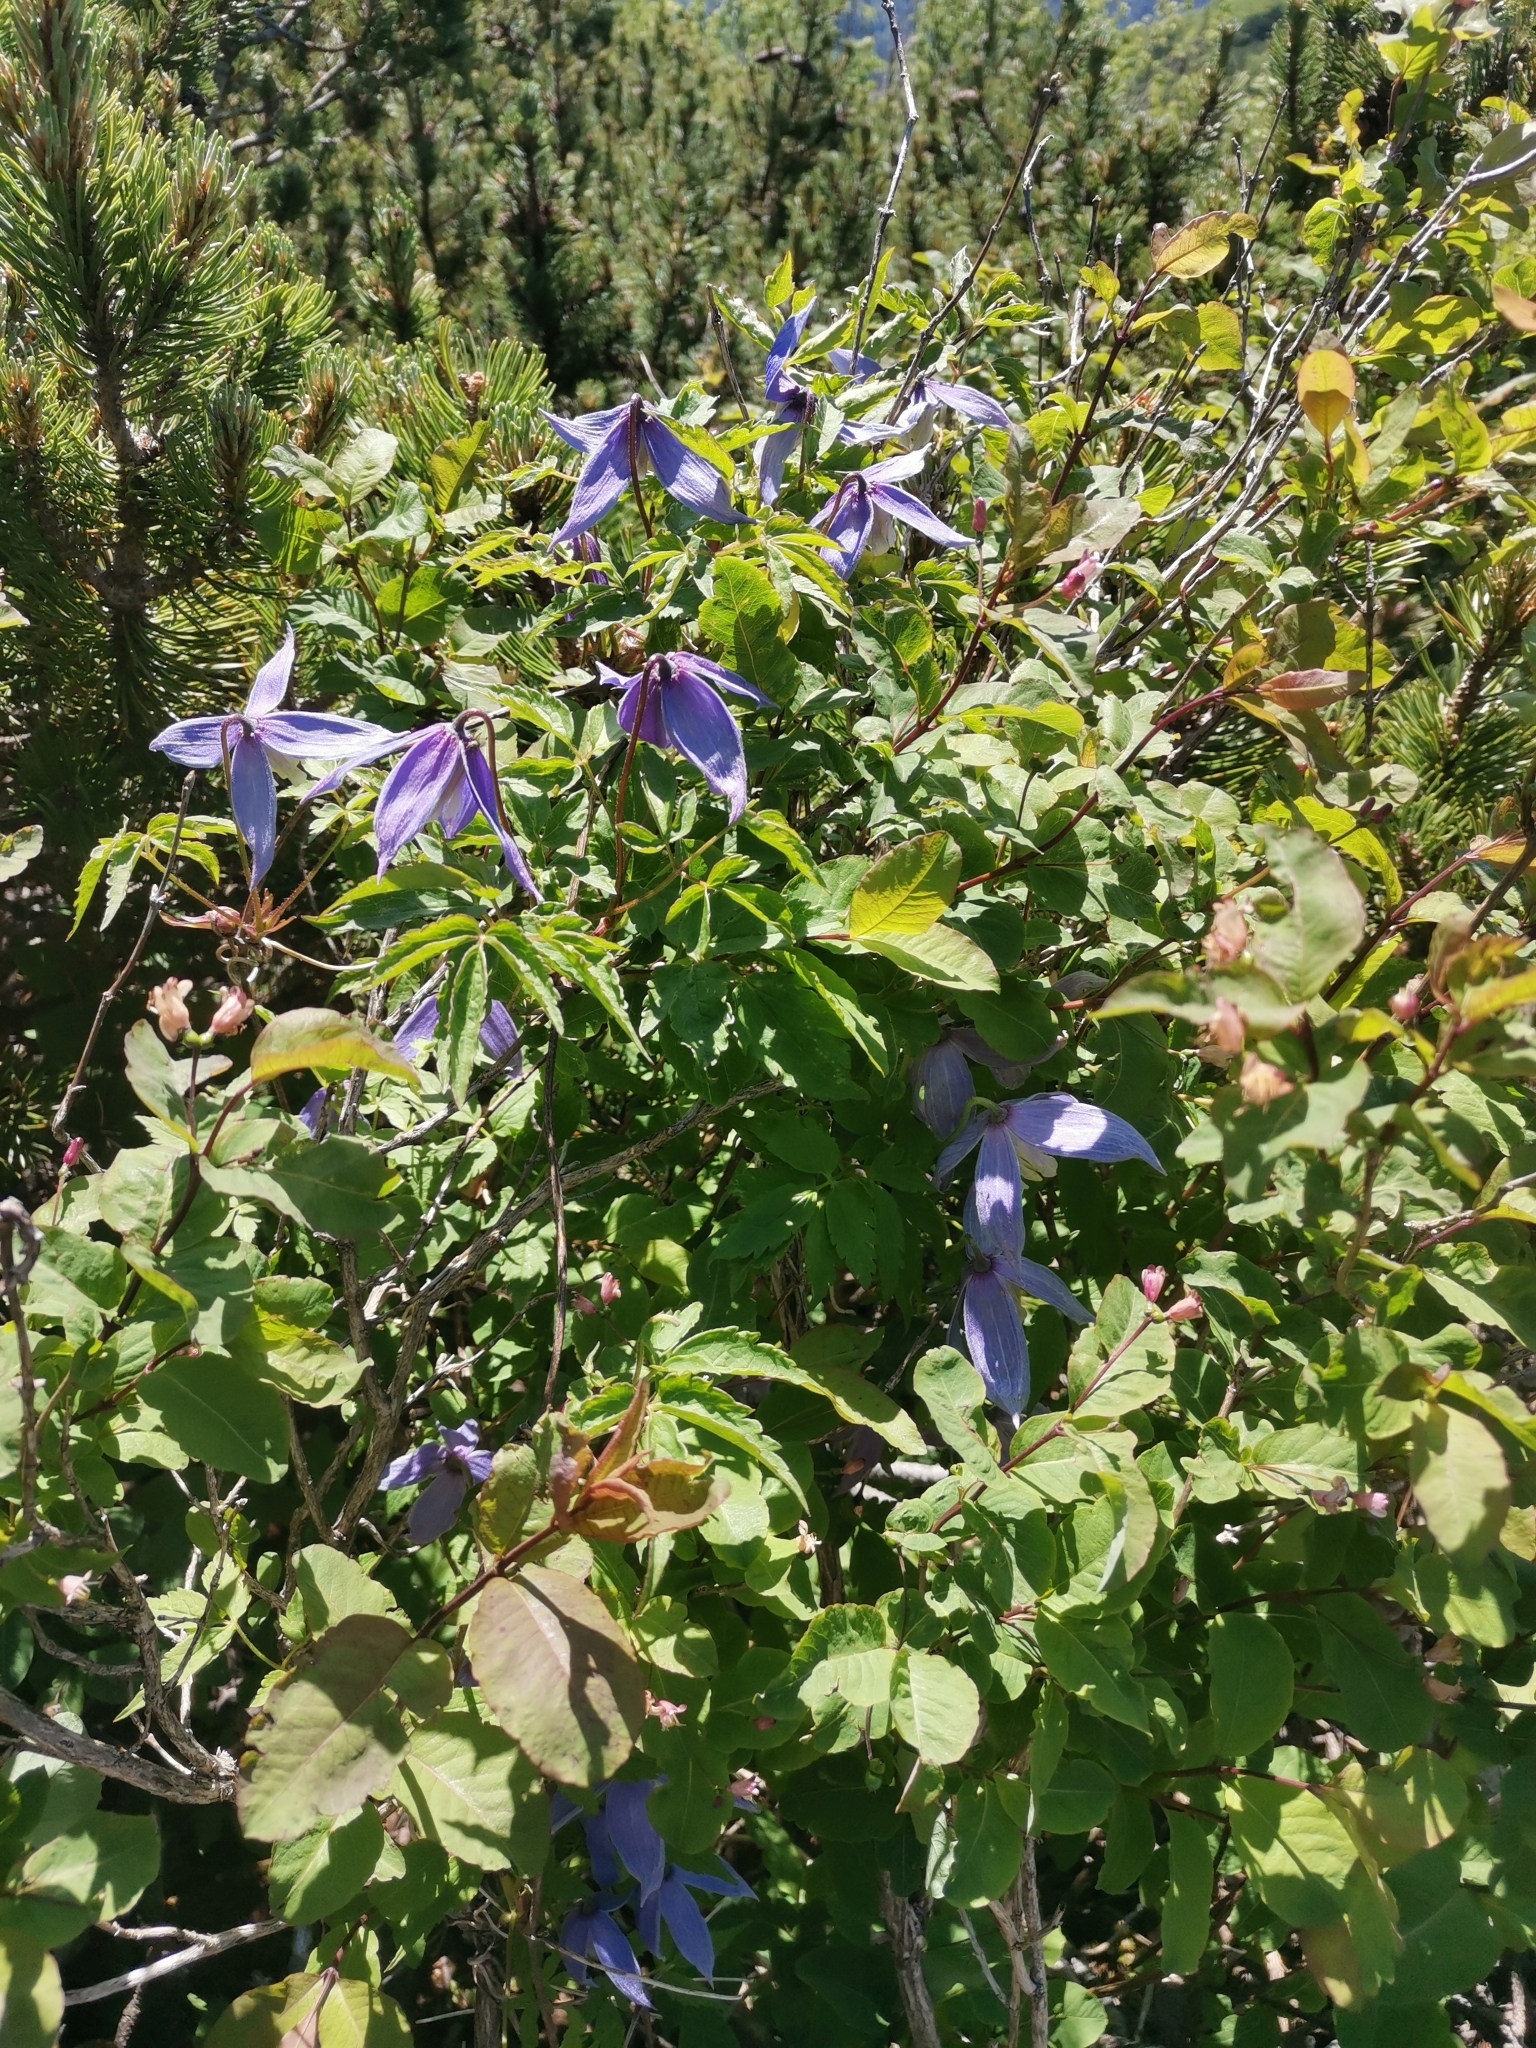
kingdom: Plantae
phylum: Tracheophyta
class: Magnoliopsida
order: Ranunculales
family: Ranunculaceae
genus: Clematis
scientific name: Clematis alpina
